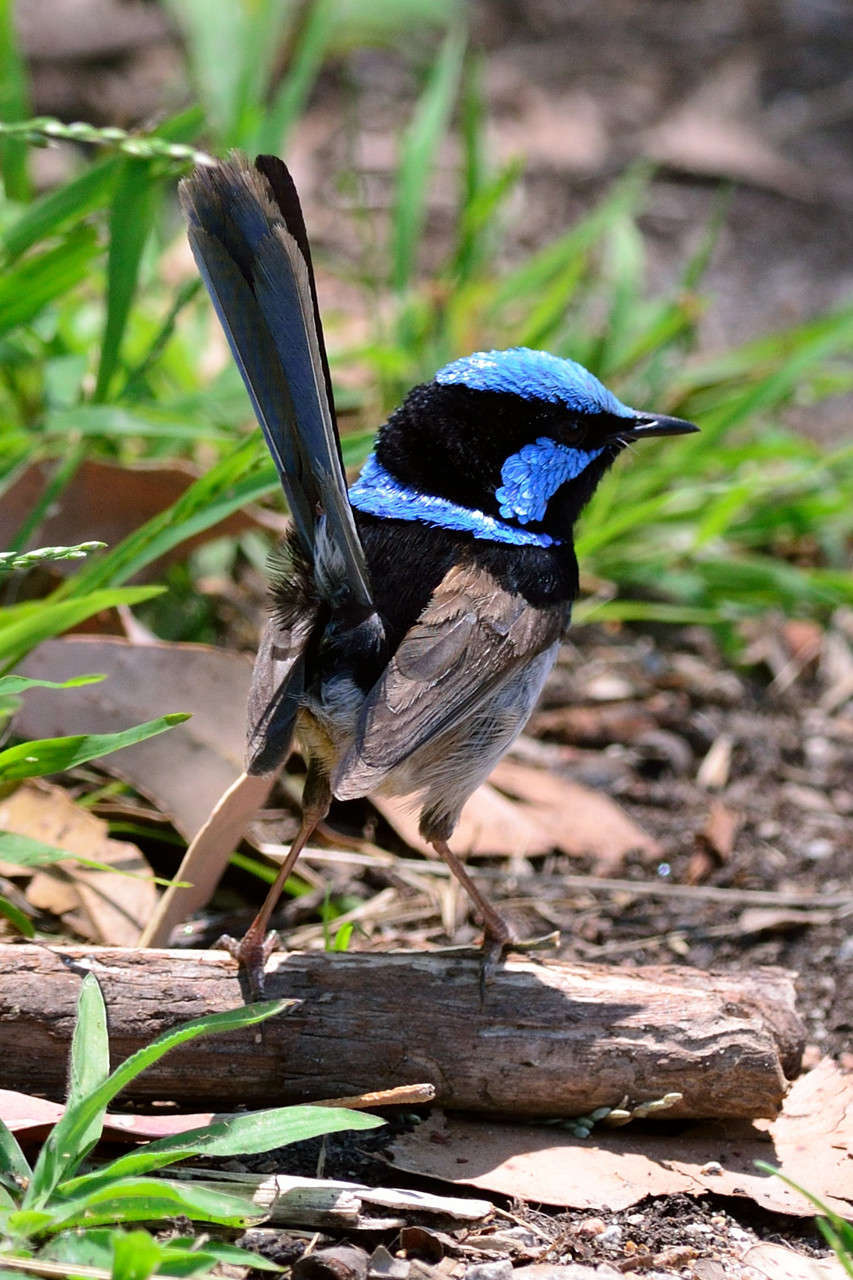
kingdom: Animalia
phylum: Chordata
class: Aves
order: Passeriformes
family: Maluridae
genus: Malurus
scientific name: Malurus cyaneus
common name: Superb fairywren
